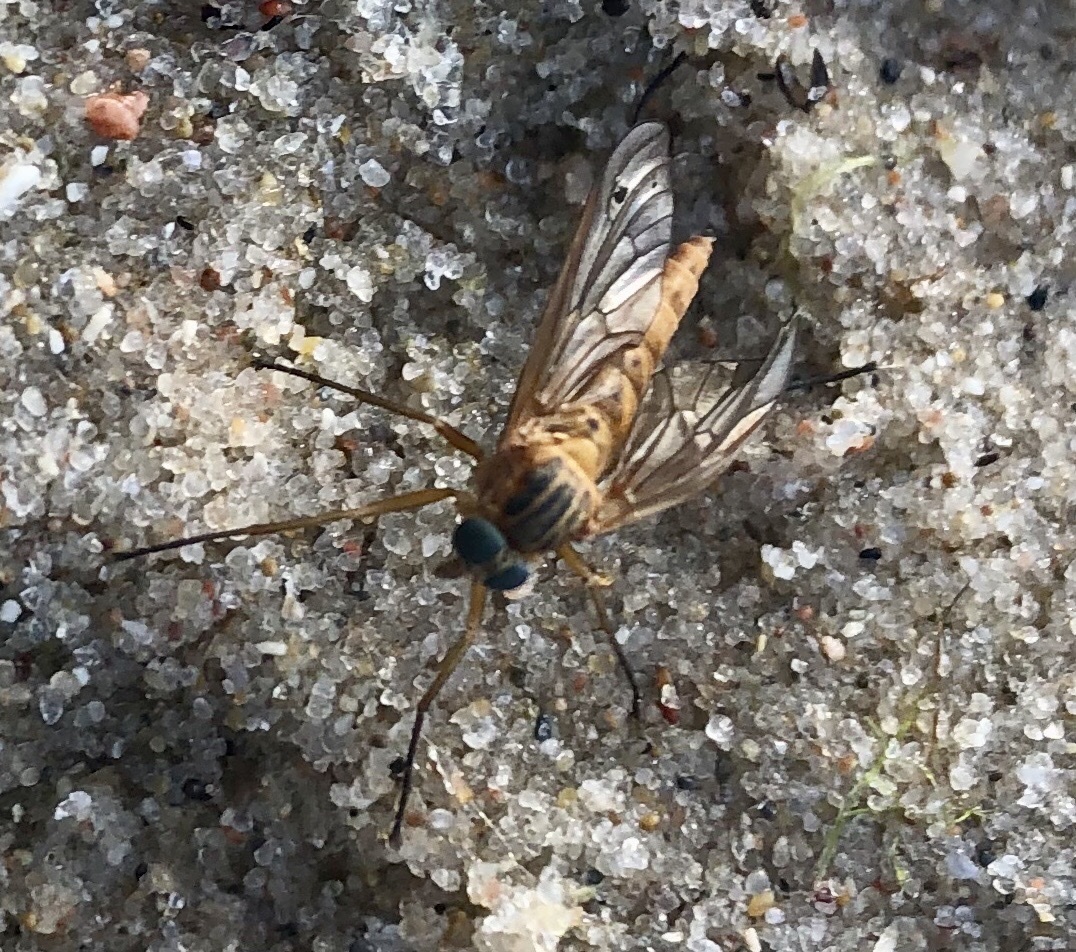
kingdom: Animalia
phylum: Arthropoda
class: Insecta
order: Diptera
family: Rhagionidae
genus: Rhagio
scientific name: Rhagio tringaria
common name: Marsh snipefly
